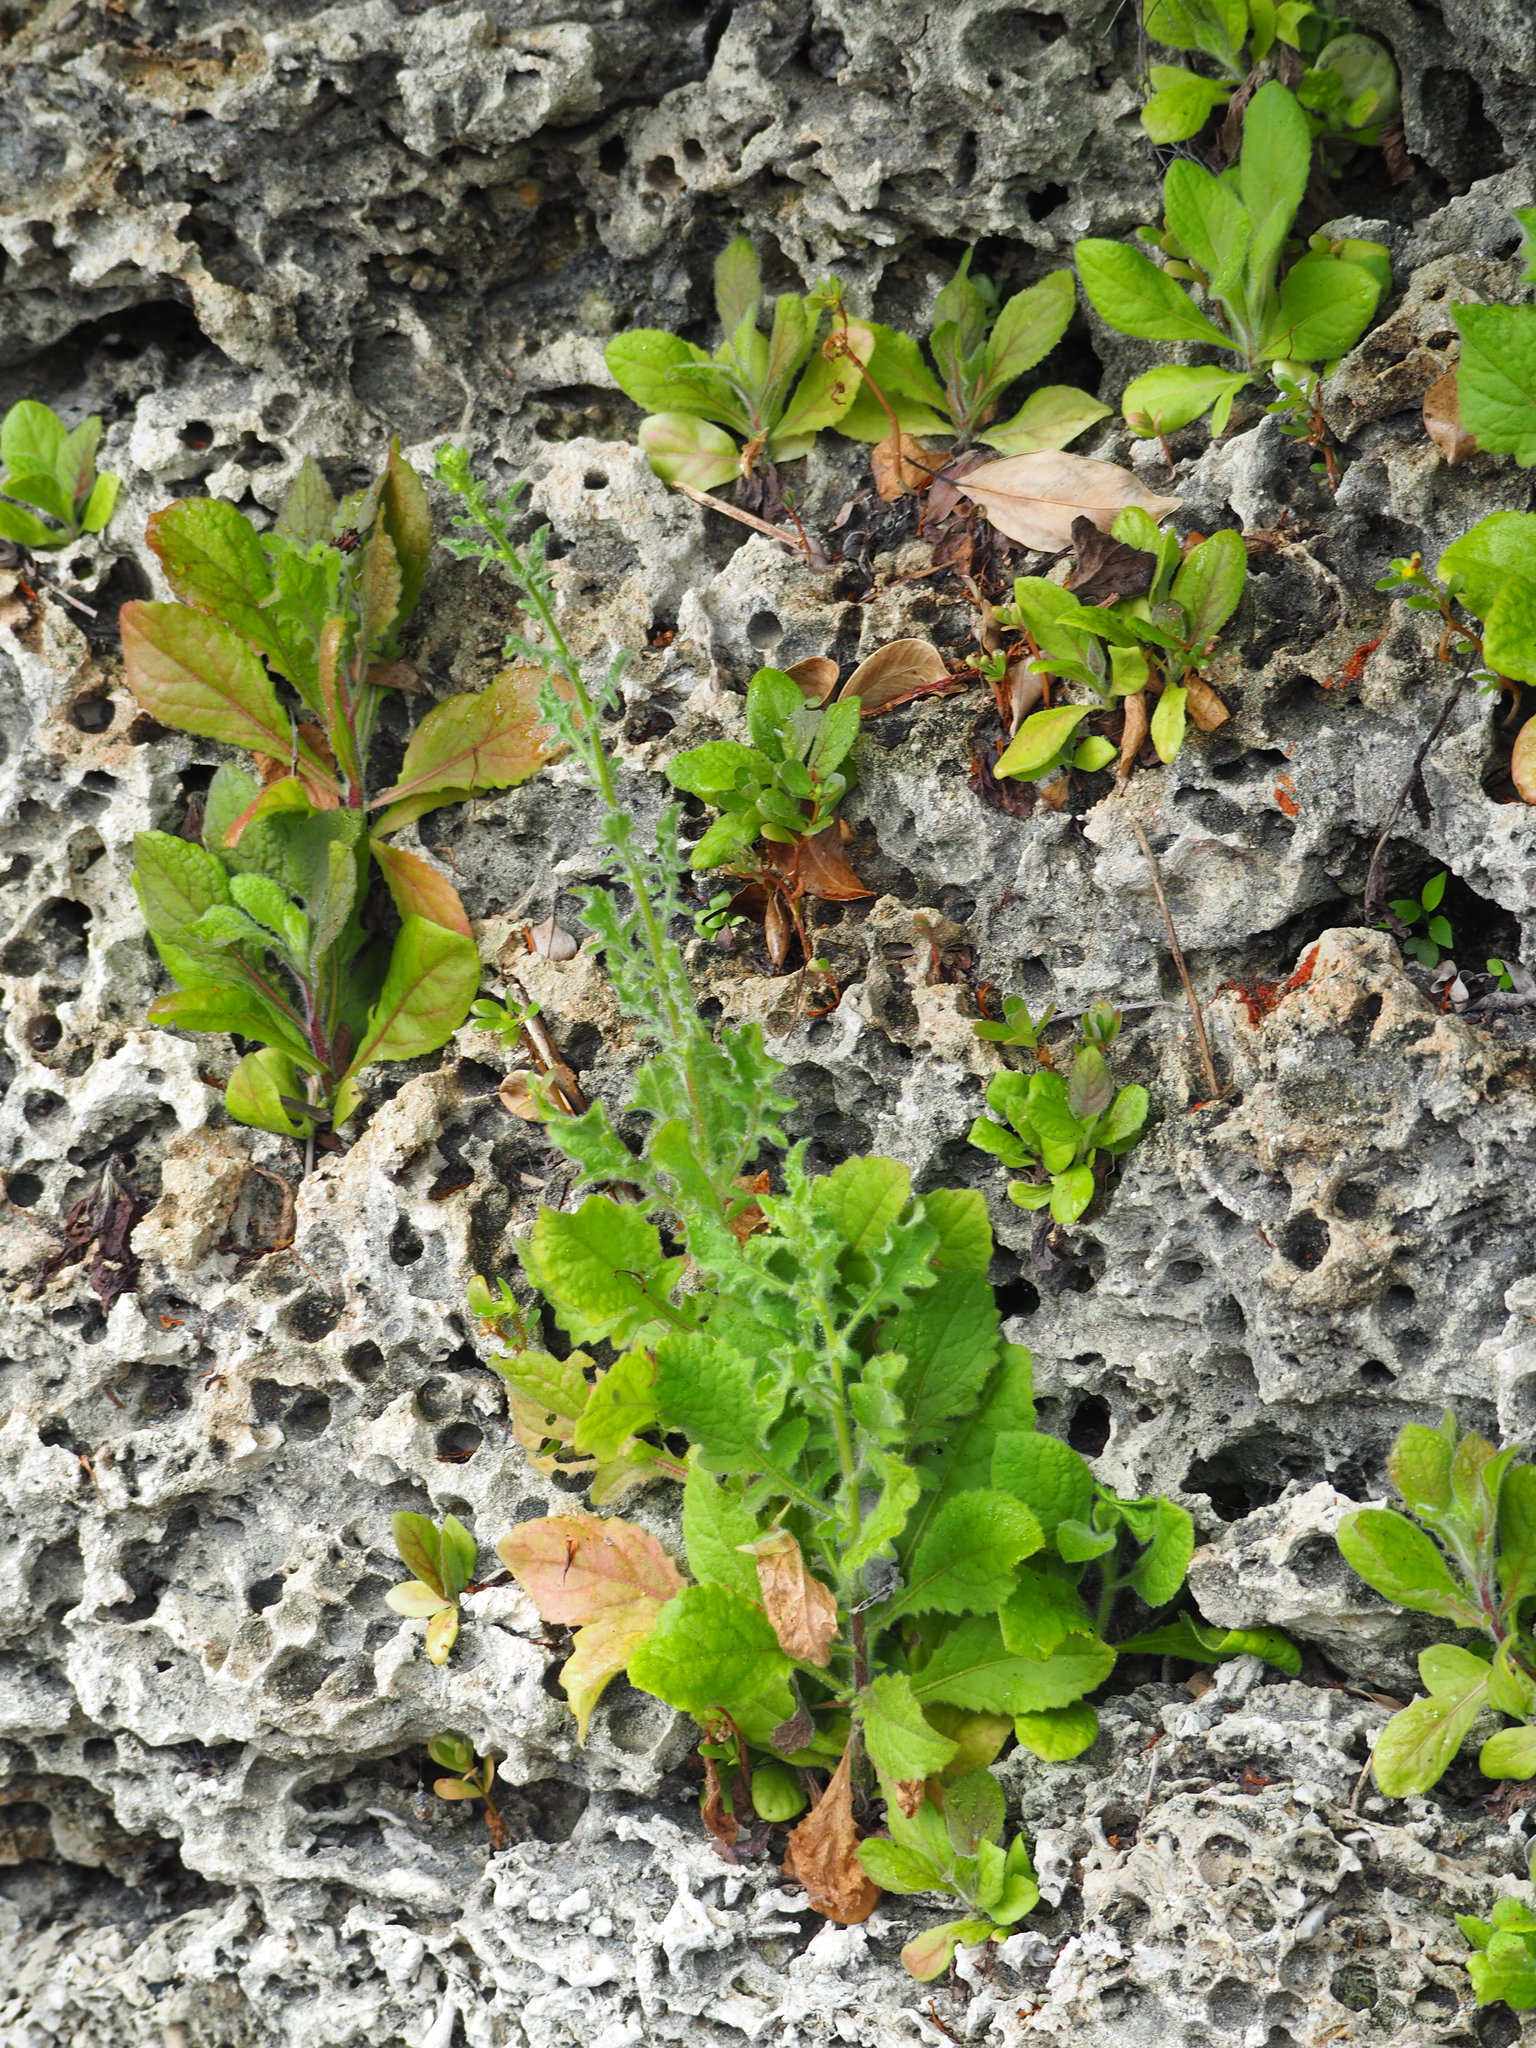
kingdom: Plantae
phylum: Tracheophyta
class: Magnoliopsida
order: Asterales
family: Asteraceae
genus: Pseudoconyza
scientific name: Pseudoconyza viscosa
